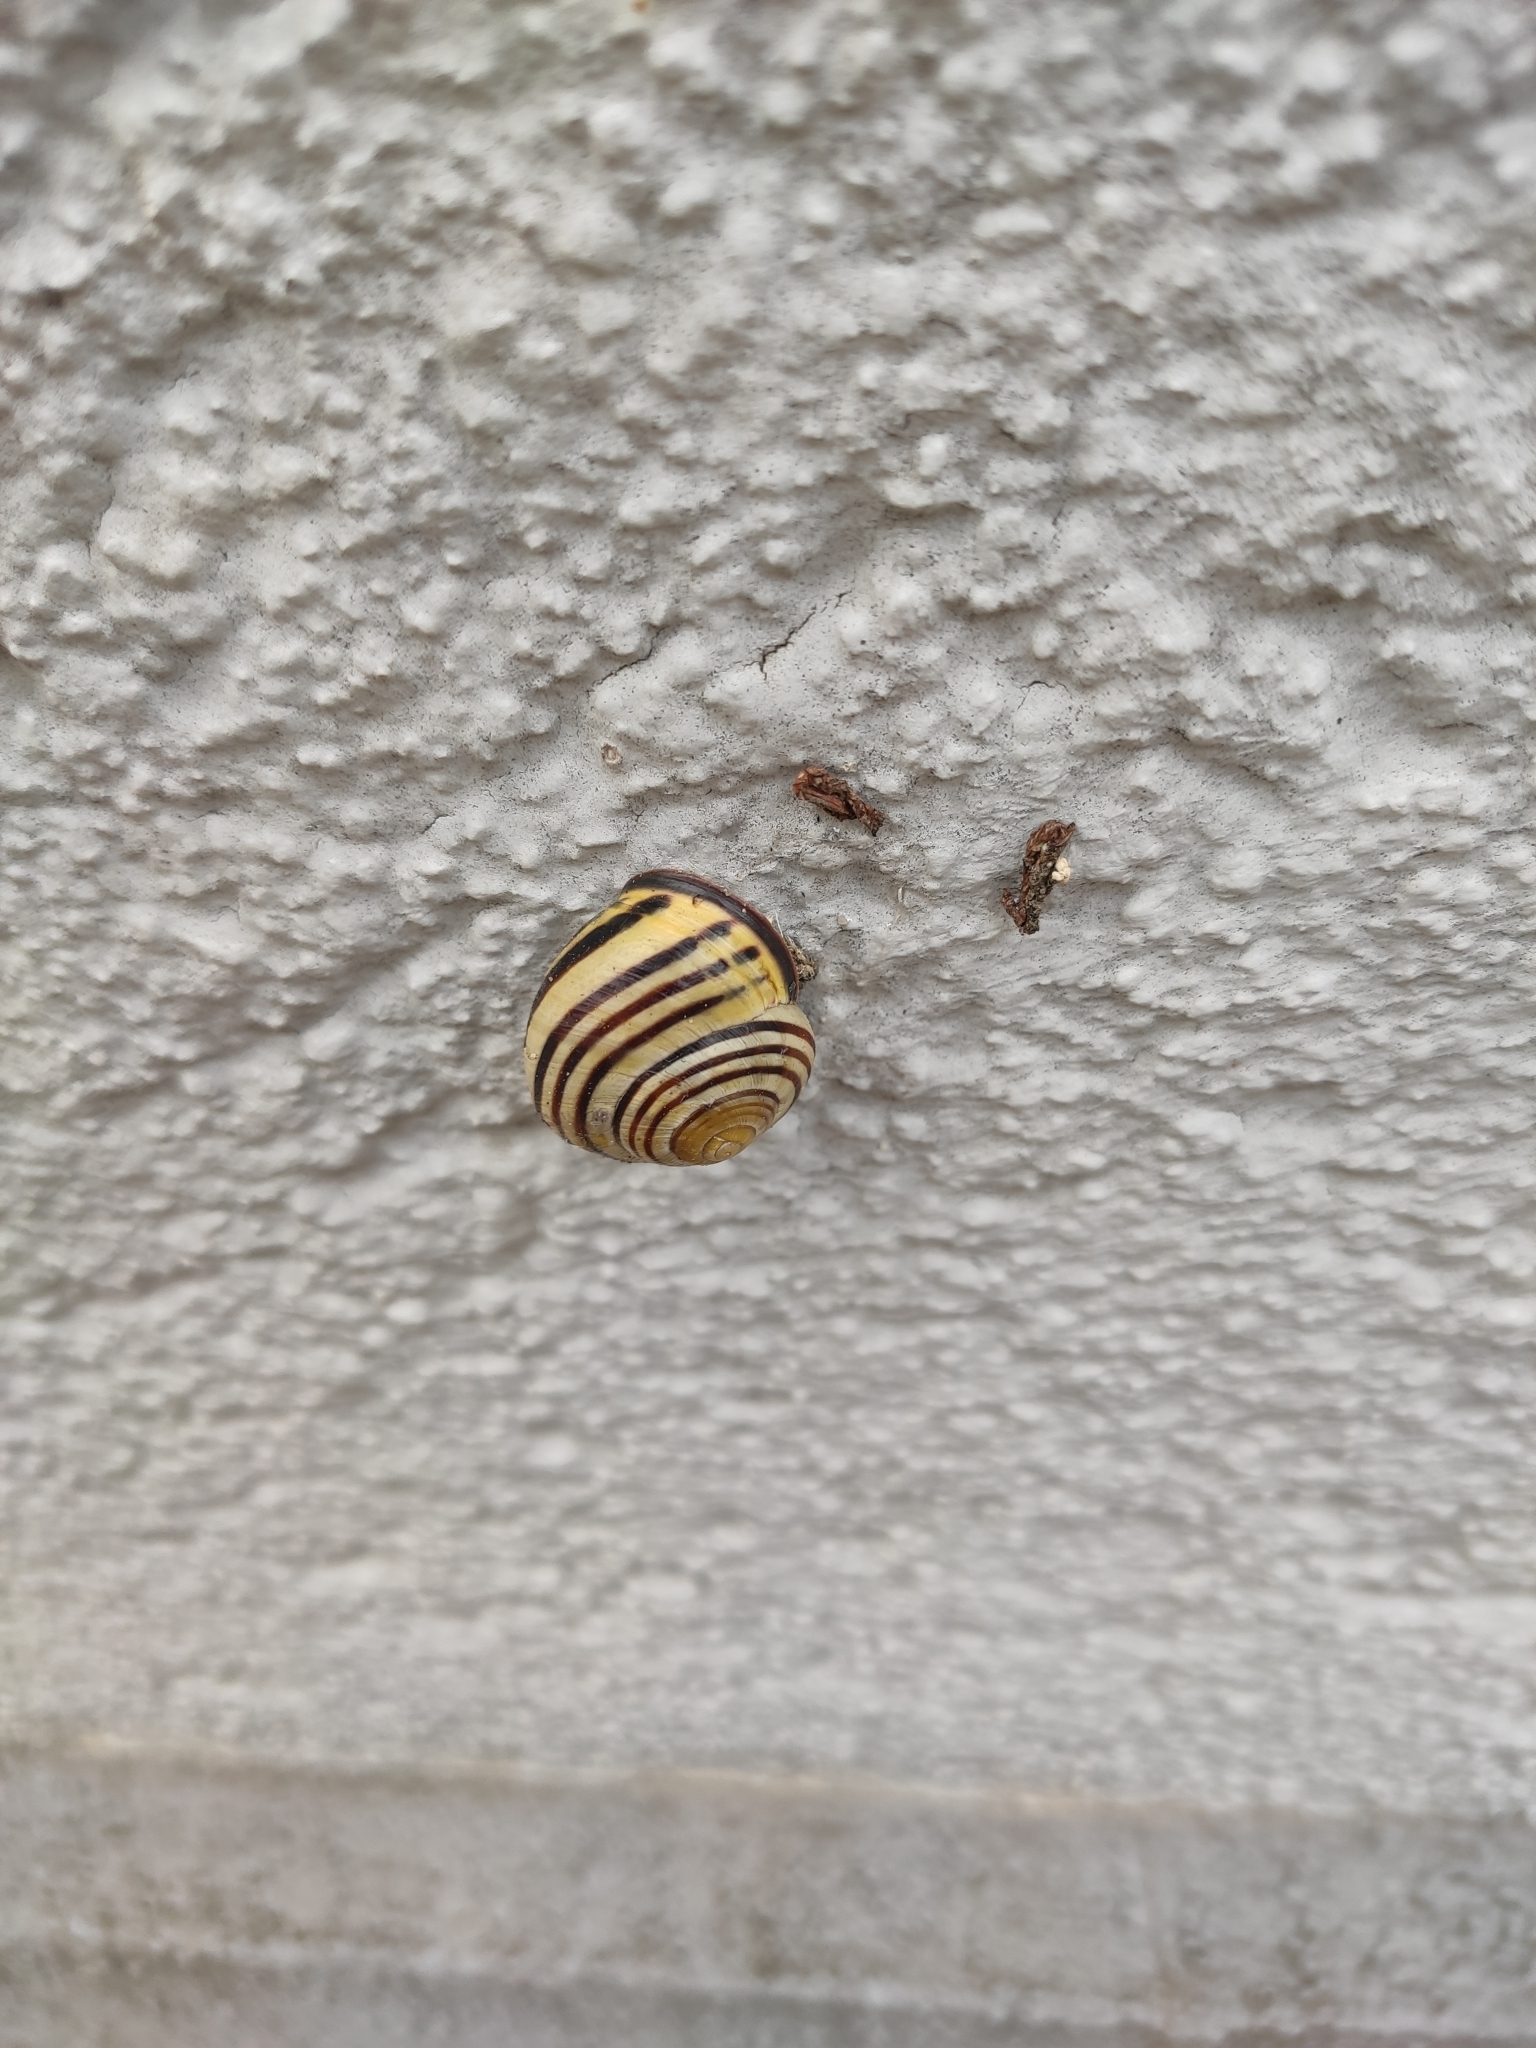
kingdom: Animalia
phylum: Mollusca
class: Gastropoda
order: Stylommatophora
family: Helicidae
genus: Cepaea
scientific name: Cepaea nemoralis
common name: Grovesnail
